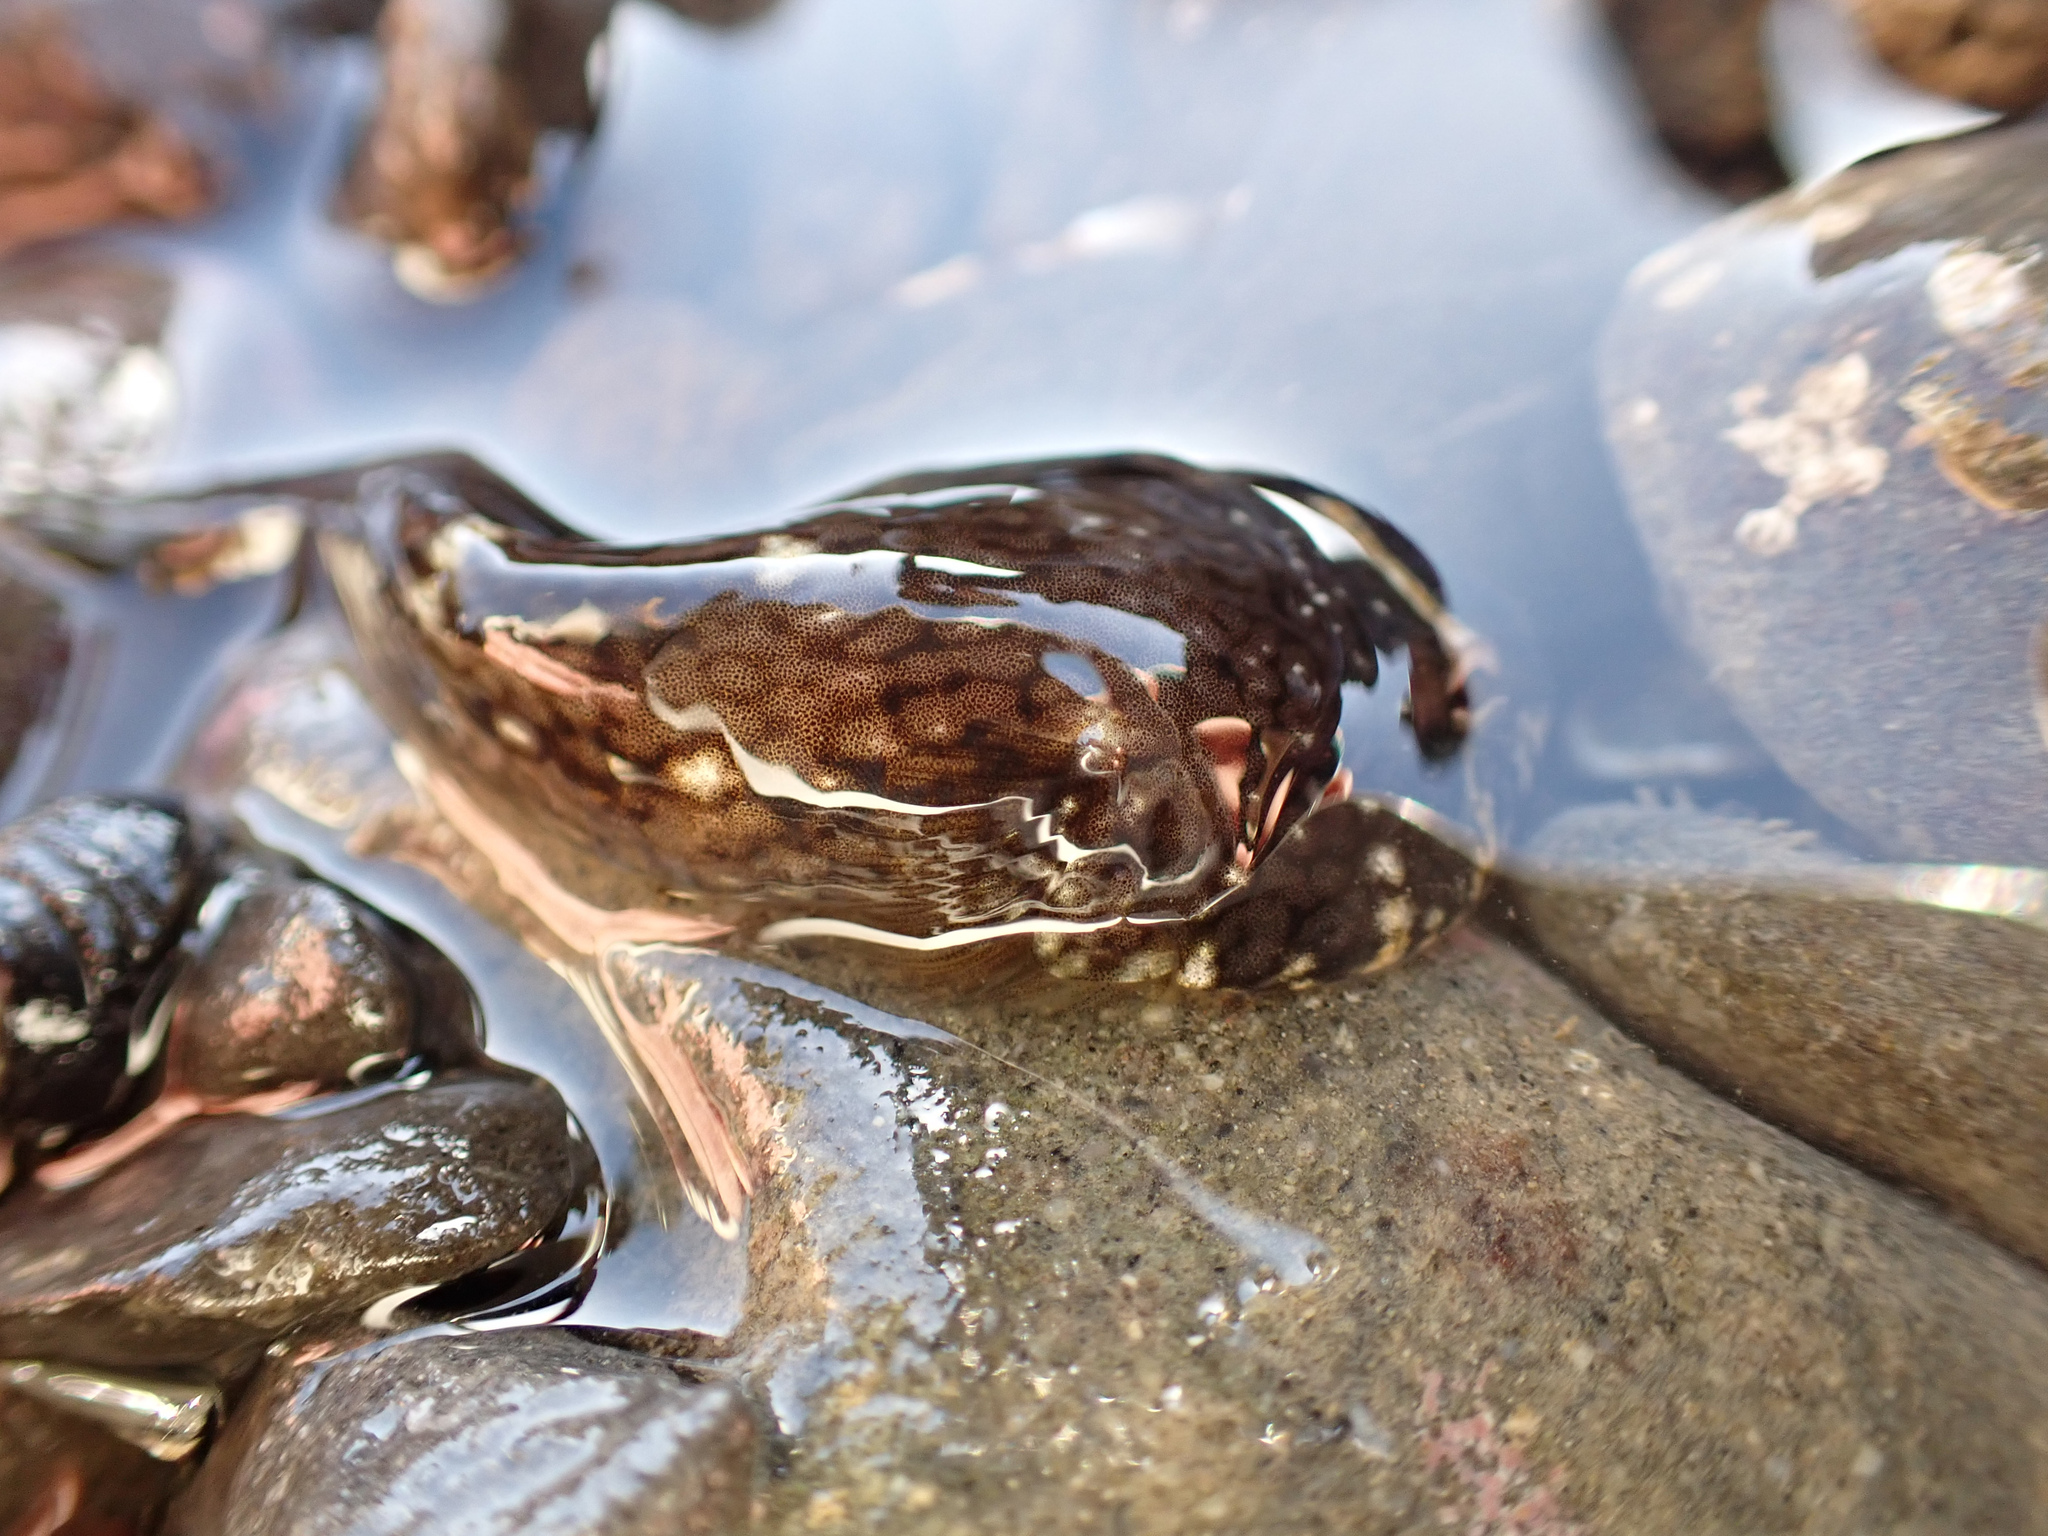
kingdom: Animalia
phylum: Chordata
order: Gobiesociformes
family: Gobiesocidae
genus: Gobiesox
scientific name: Gobiesox maeandricus
